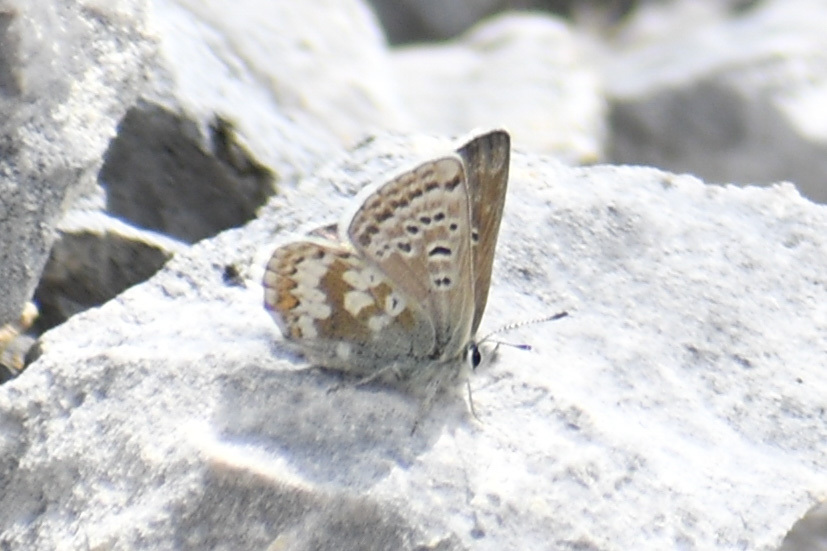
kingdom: Animalia
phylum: Arthropoda
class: Insecta
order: Lepidoptera
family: Lycaenidae
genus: Agriades
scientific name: Agriades glandon
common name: Glandon blue
